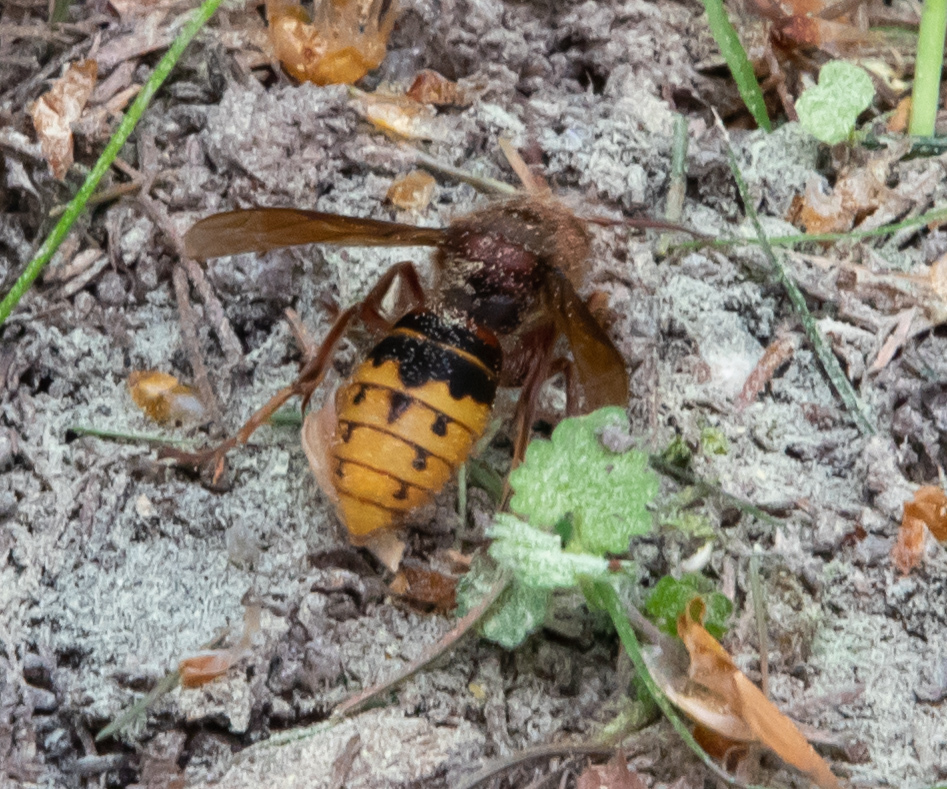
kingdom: Animalia
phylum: Arthropoda
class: Insecta
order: Hymenoptera
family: Vespidae
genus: Vespa
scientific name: Vespa crabro
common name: Hornet
